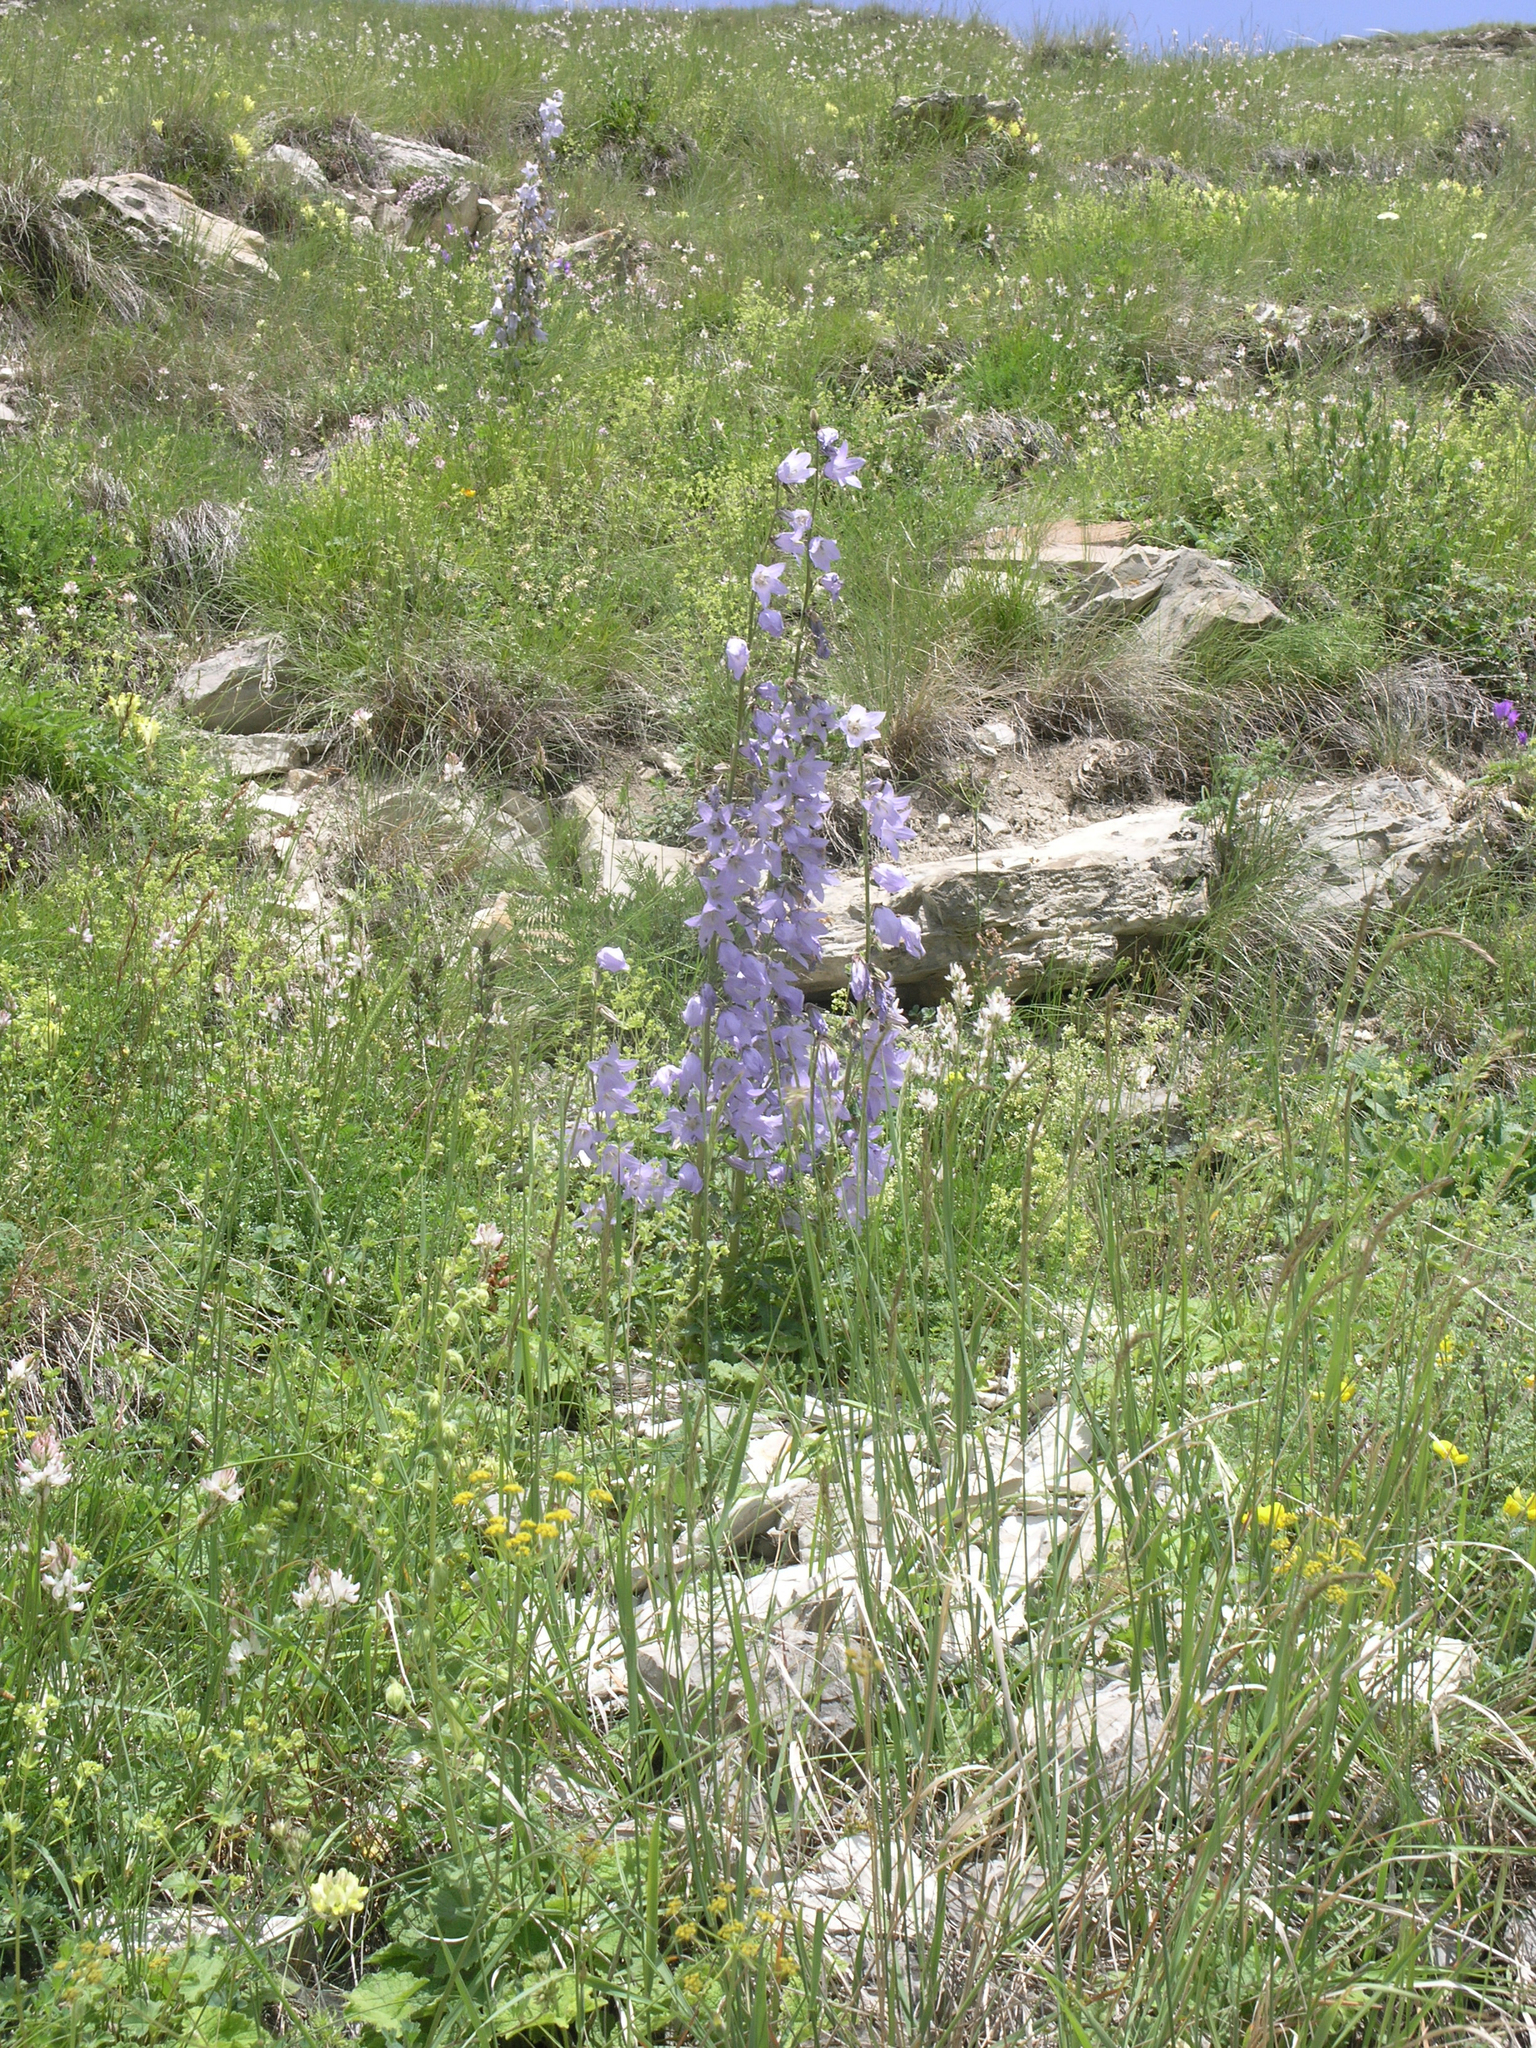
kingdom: Plantae
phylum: Tracheophyta
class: Magnoliopsida
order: Asterales
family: Campanulaceae
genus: Campanula
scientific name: Campanula sarmatica
